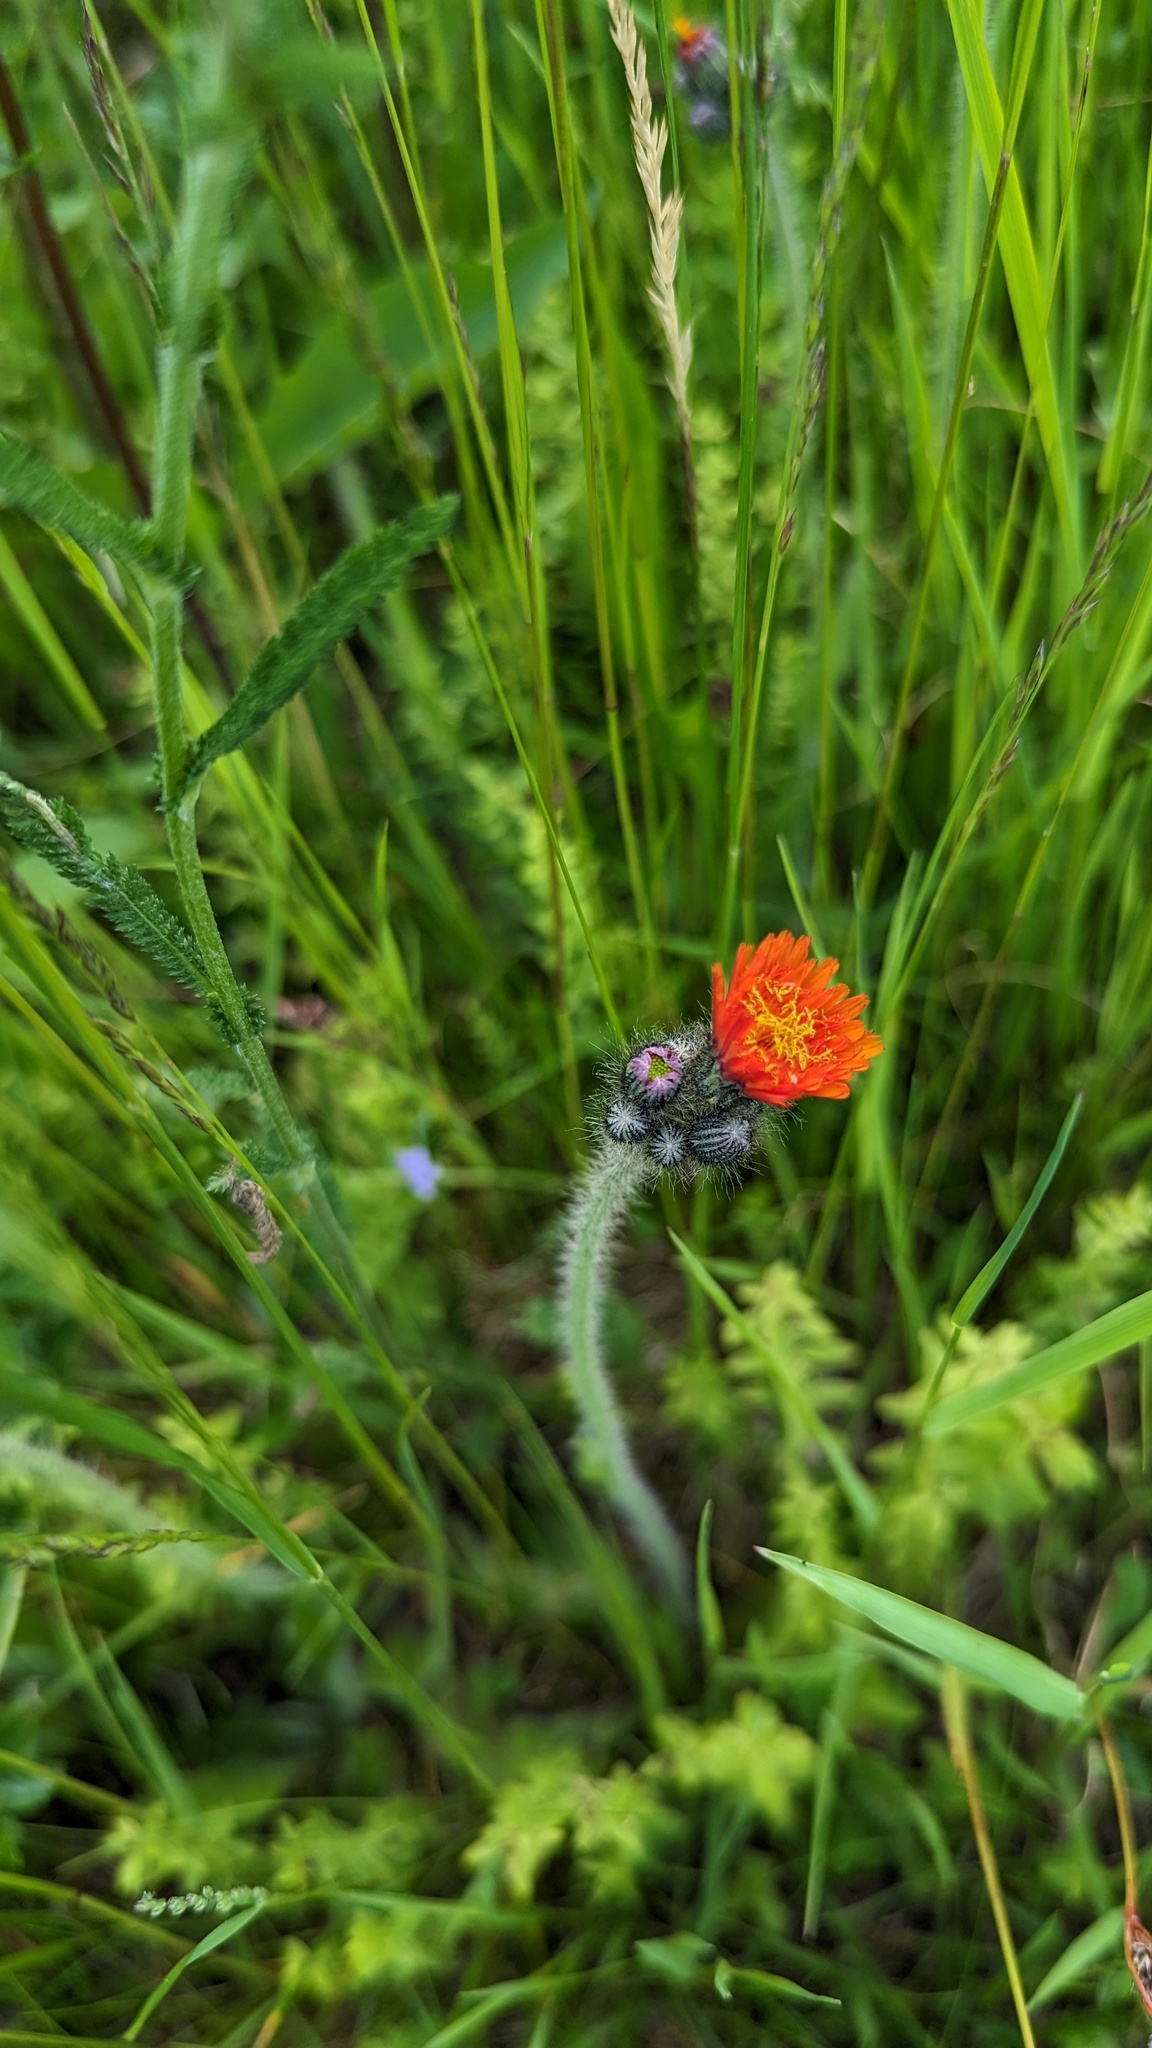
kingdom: Plantae
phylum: Tracheophyta
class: Magnoliopsida
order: Asterales
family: Asteraceae
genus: Pilosella
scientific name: Pilosella aurantiaca
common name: Fox-and-cubs
